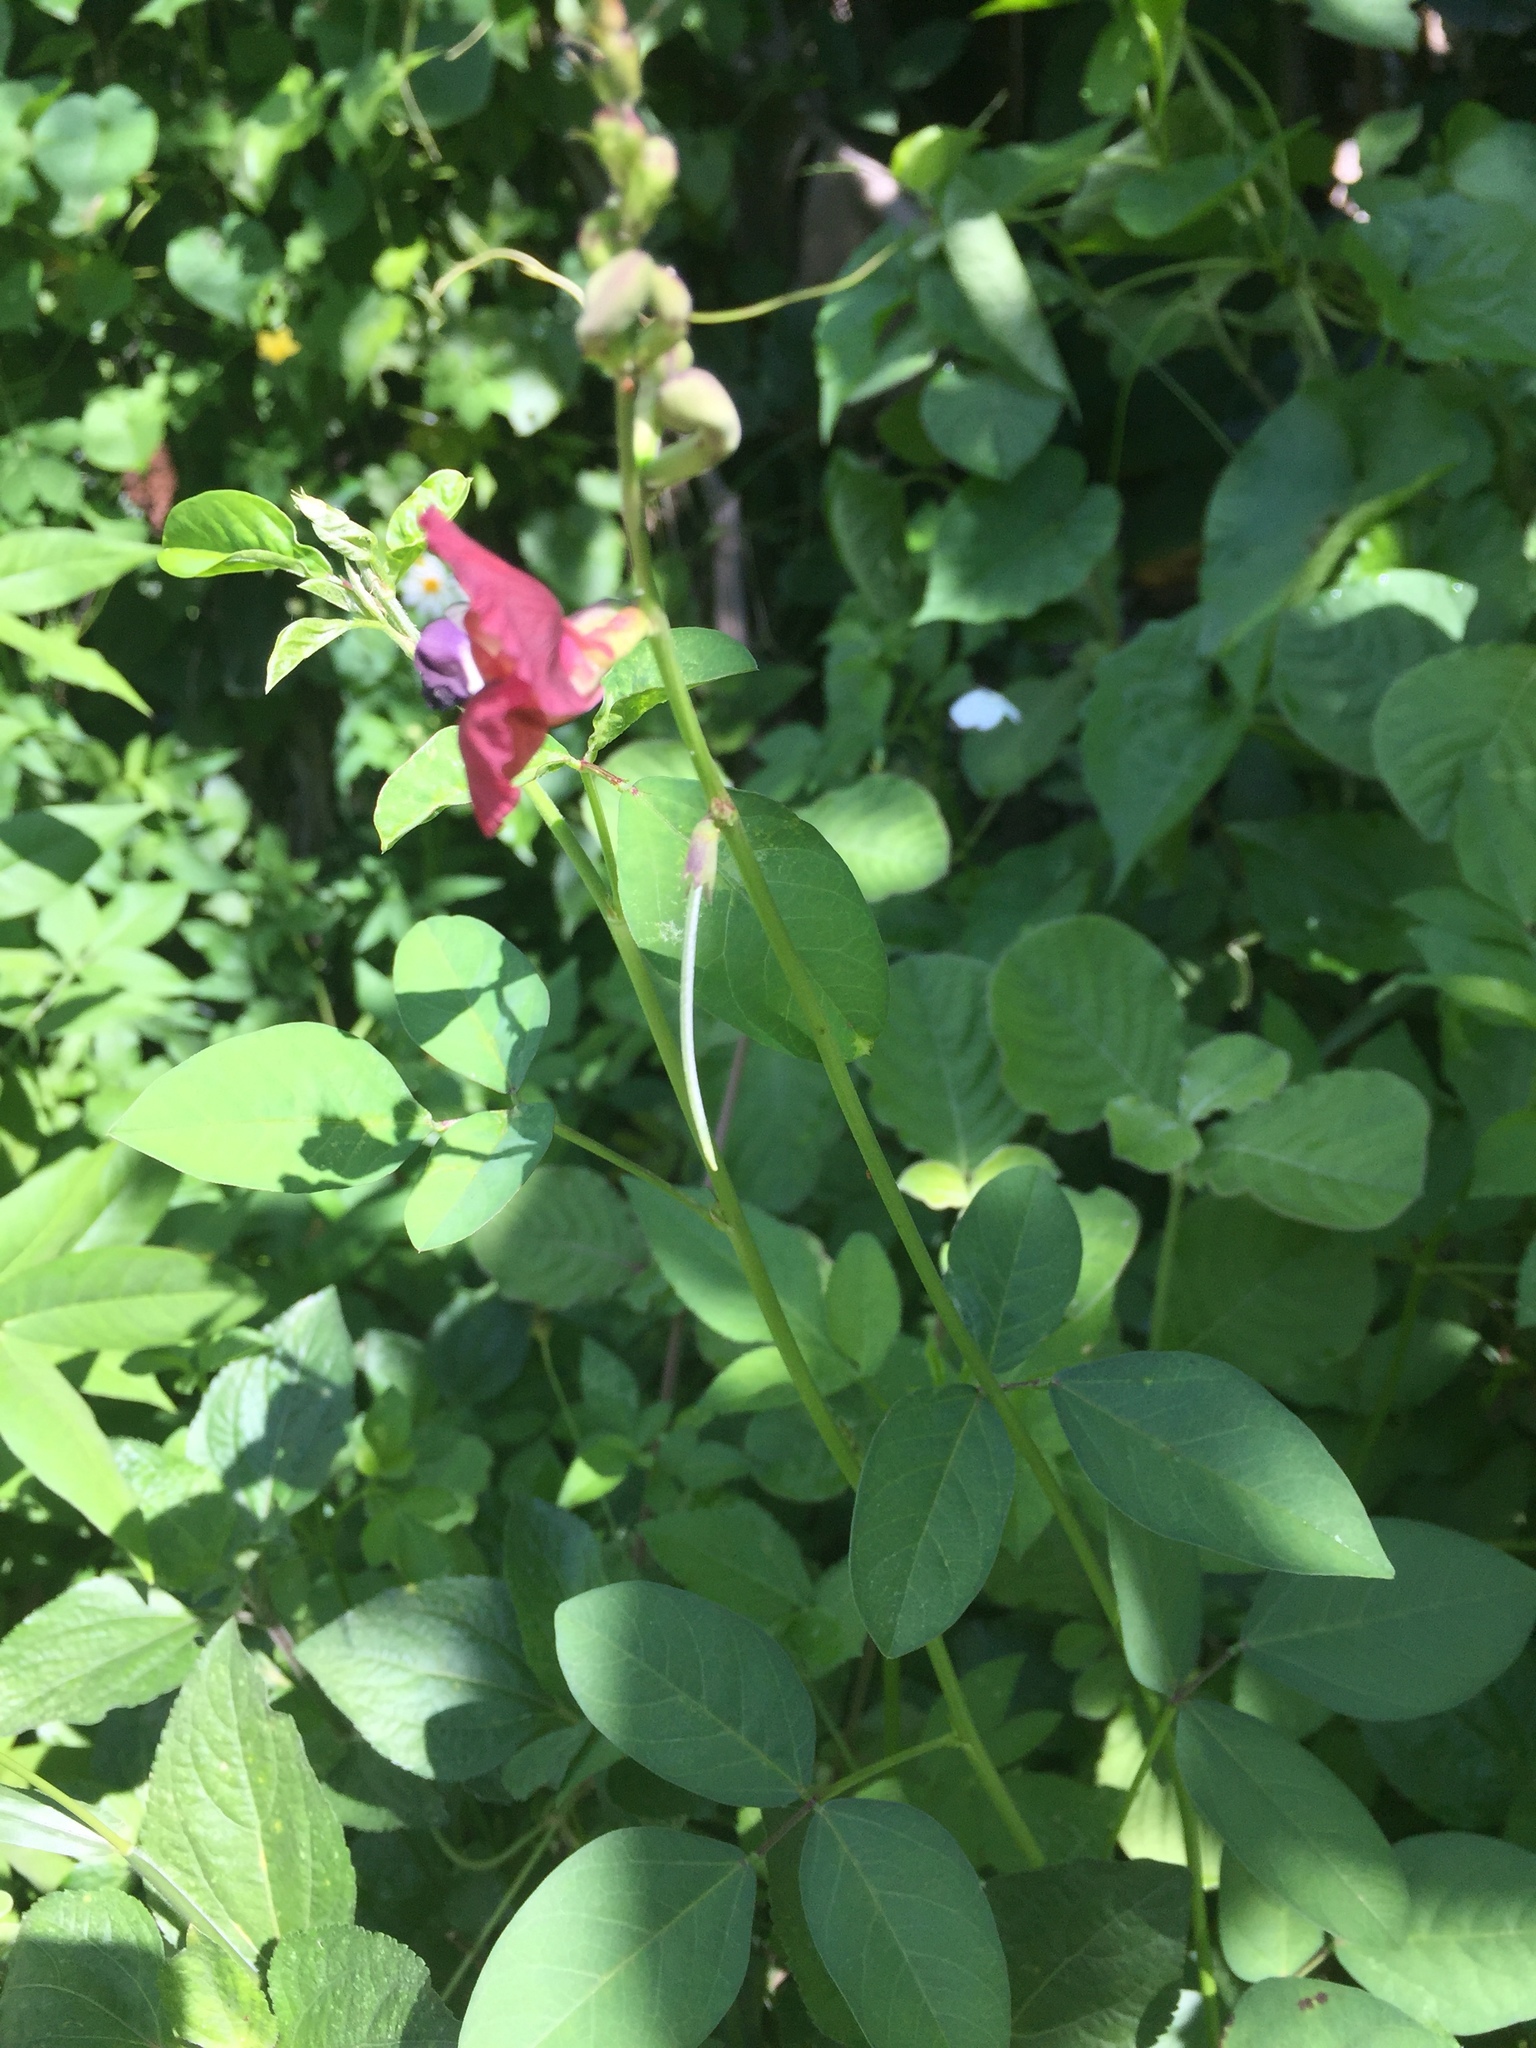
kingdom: Plantae
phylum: Tracheophyta
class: Magnoliopsida
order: Fabales
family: Fabaceae
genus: Macroptilium
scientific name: Macroptilium lathyroides
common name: Wild bushbean
